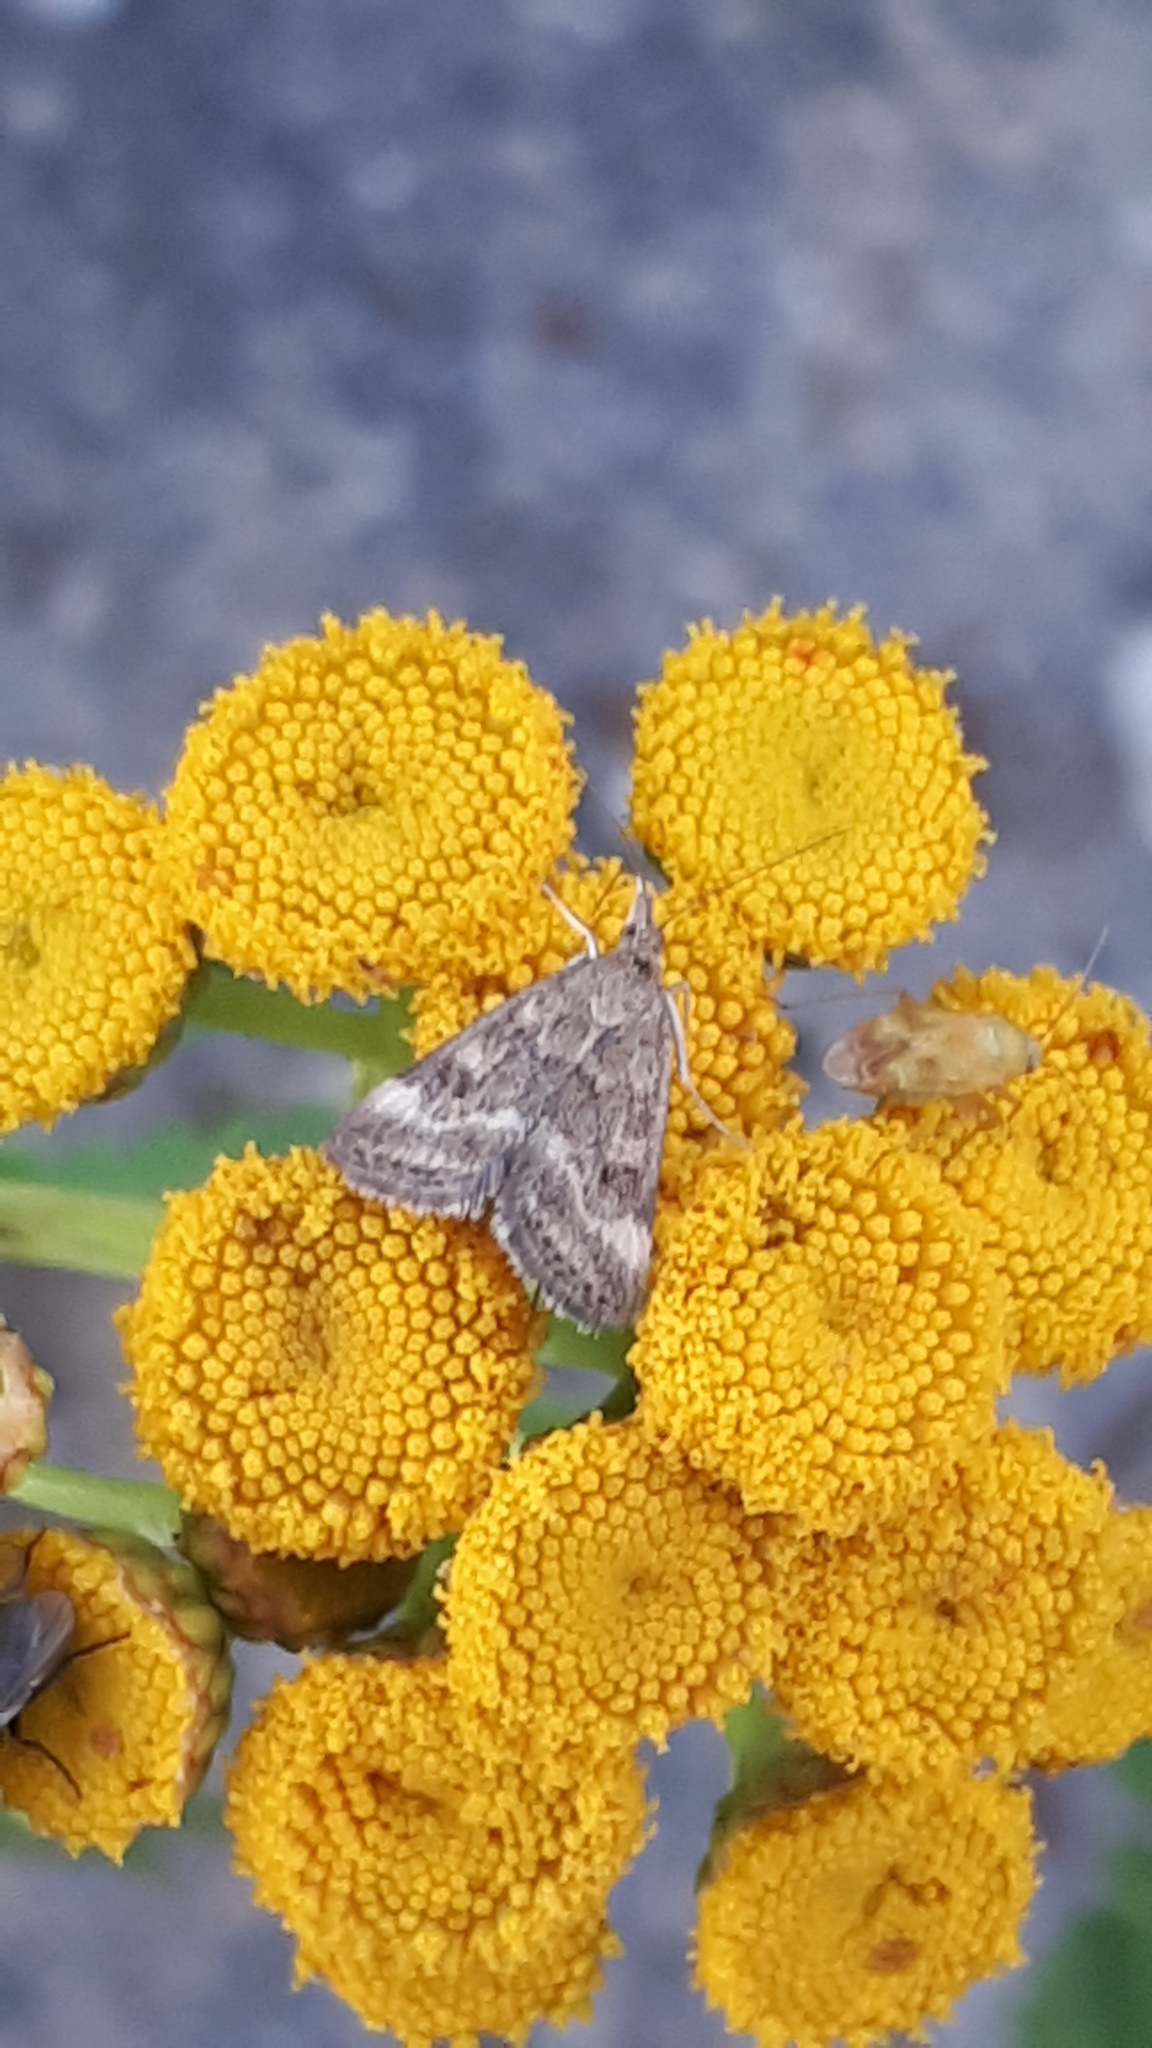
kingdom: Animalia
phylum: Arthropoda
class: Insecta
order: Lepidoptera
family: Crambidae
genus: Pyrausta
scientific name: Pyrausta despicata
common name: Straw-barred pearl
